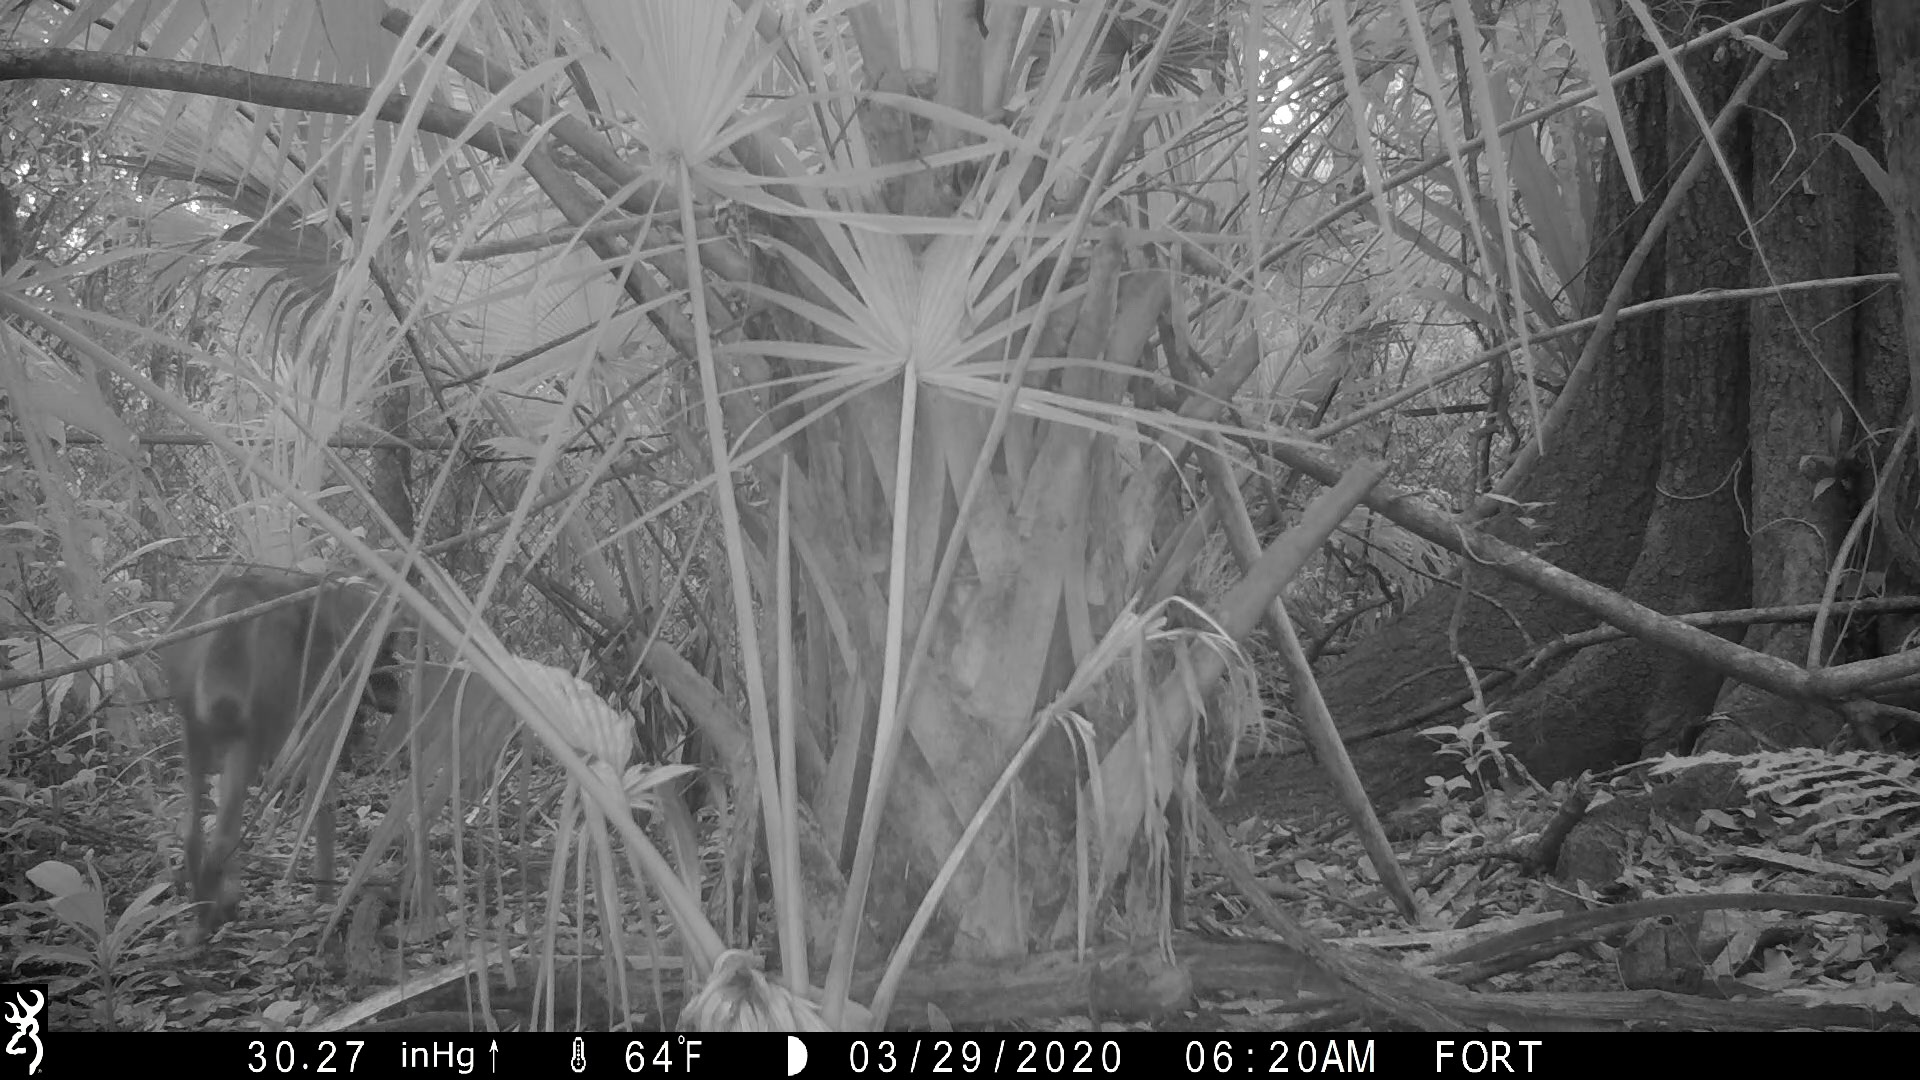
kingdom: Animalia
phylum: Chordata
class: Mammalia
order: Carnivora
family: Procyonidae
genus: Procyon
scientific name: Procyon lotor
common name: Raccoon
